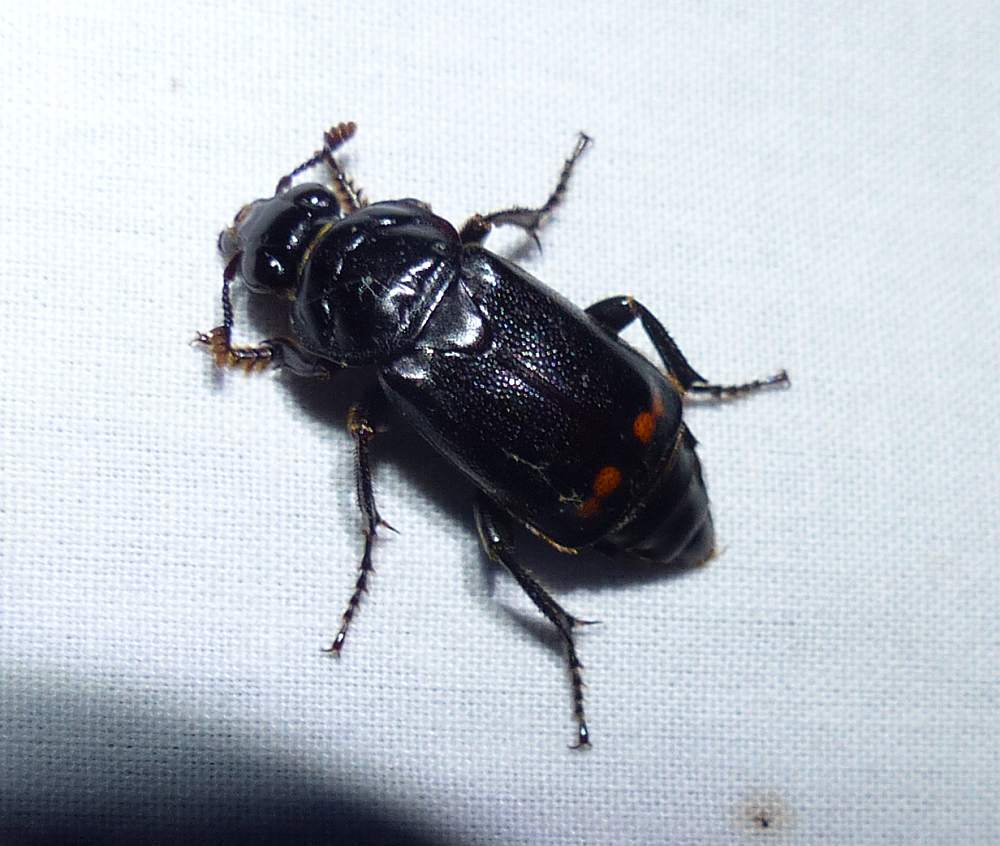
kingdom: Animalia
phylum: Arthropoda
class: Insecta
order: Coleoptera
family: Staphylinidae
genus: Nicrophorus
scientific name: Nicrophorus pustulatus
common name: Pustulated carrion beetle
